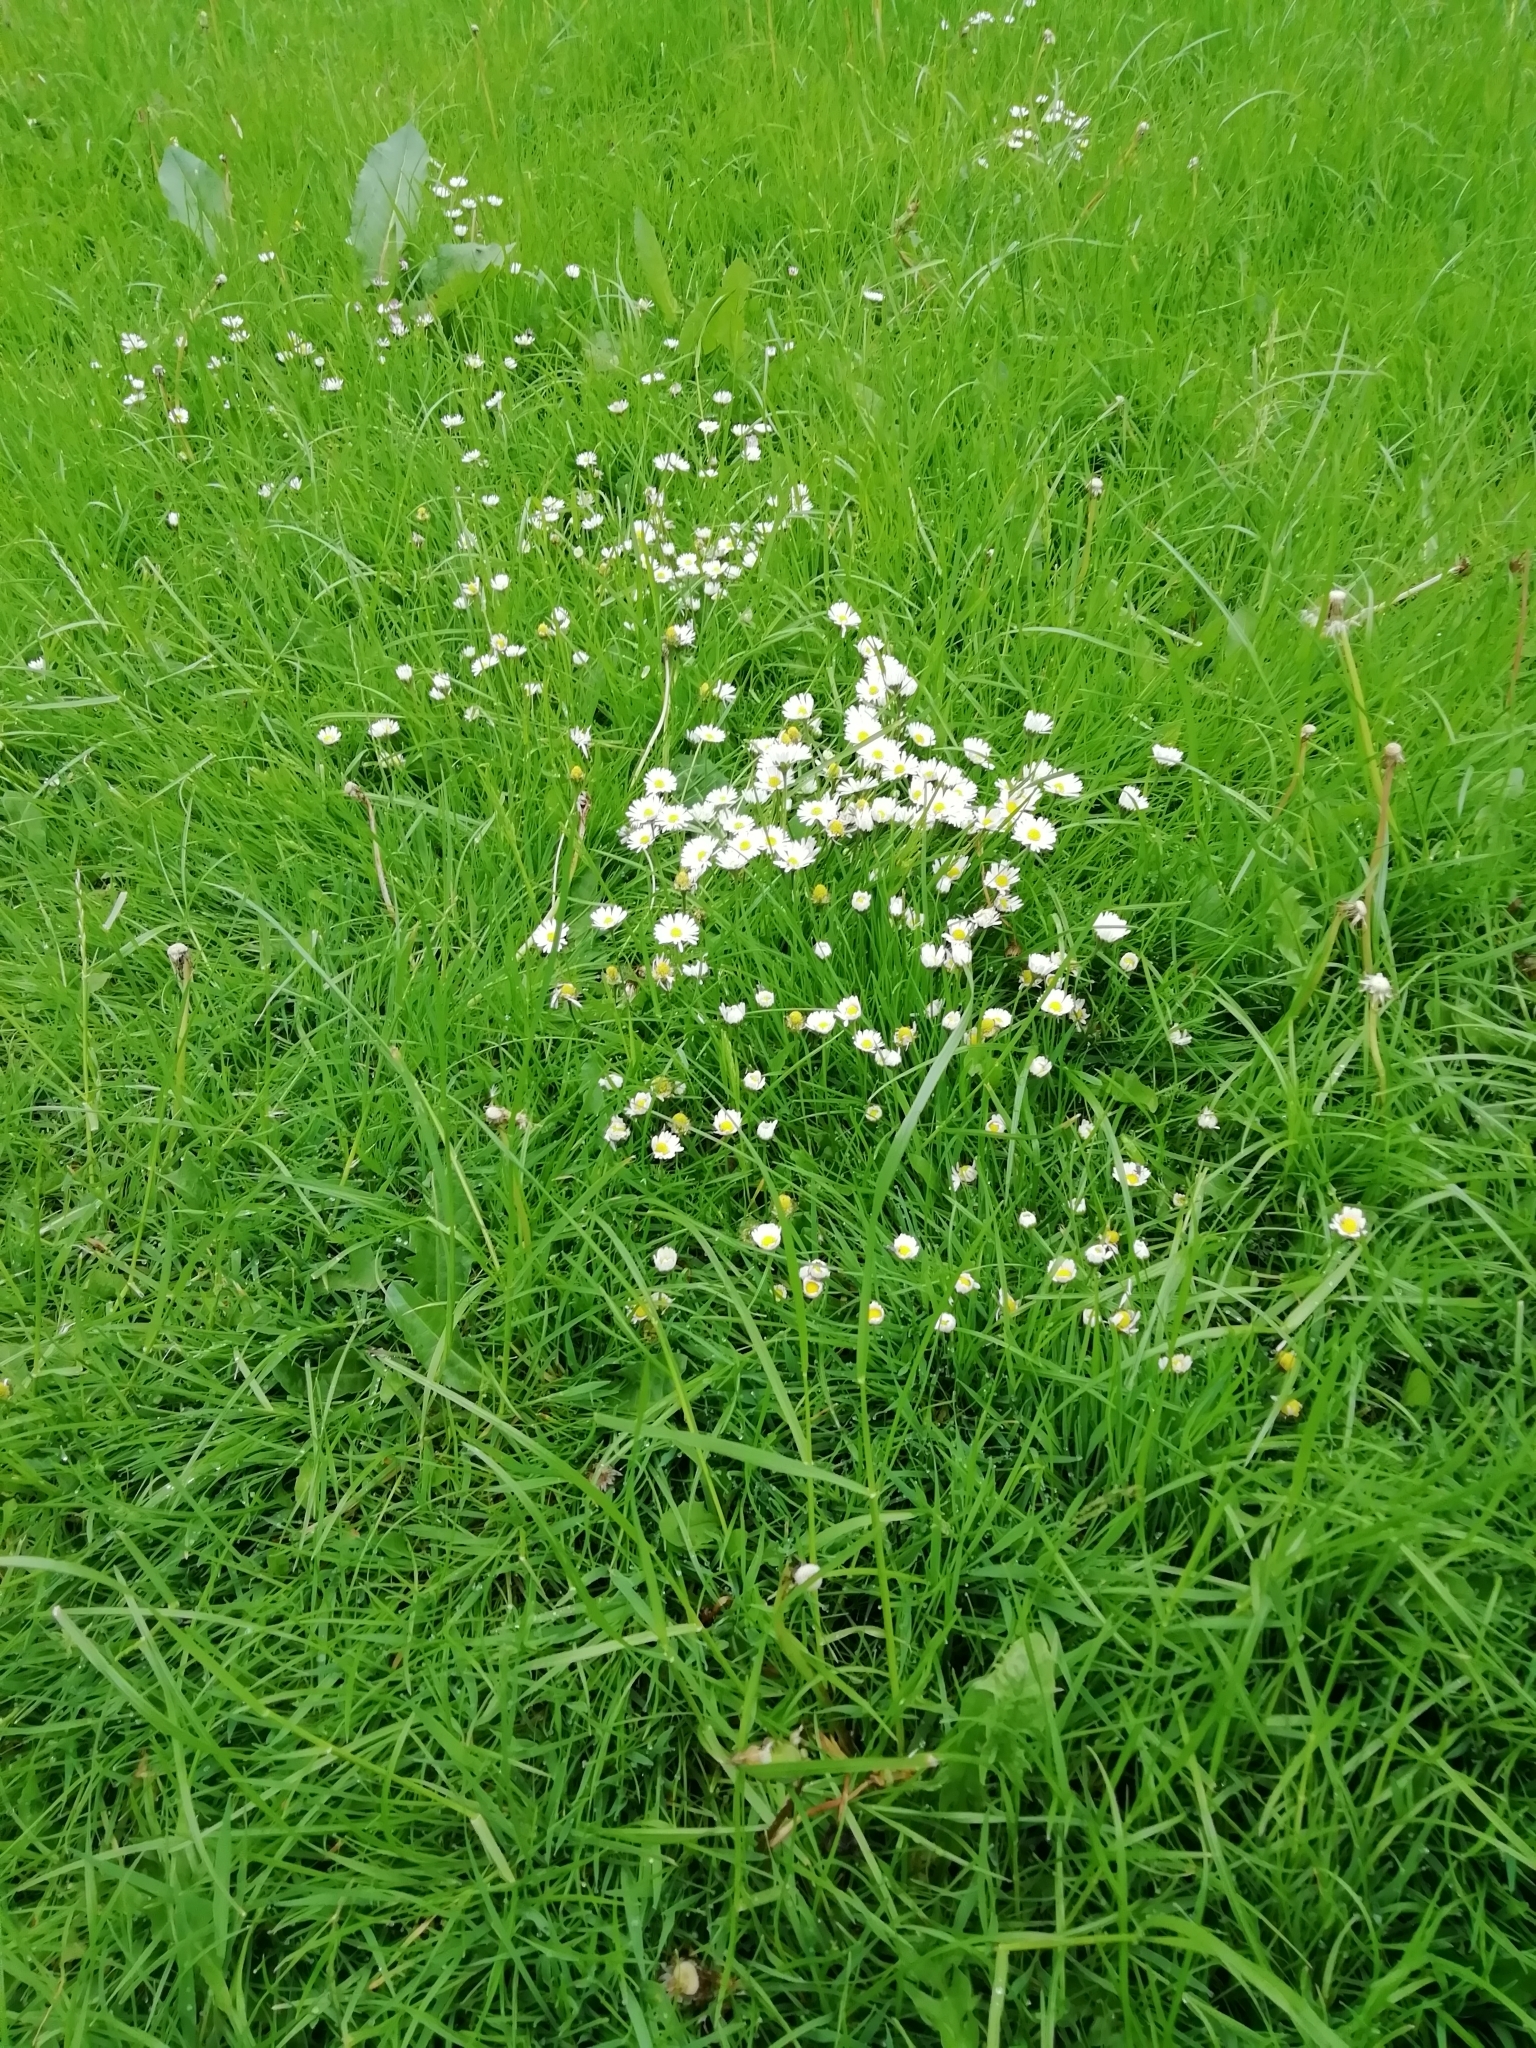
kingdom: Plantae
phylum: Tracheophyta
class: Magnoliopsida
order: Asterales
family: Asteraceae
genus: Bellis
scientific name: Bellis perennis
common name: Lawndaisy
